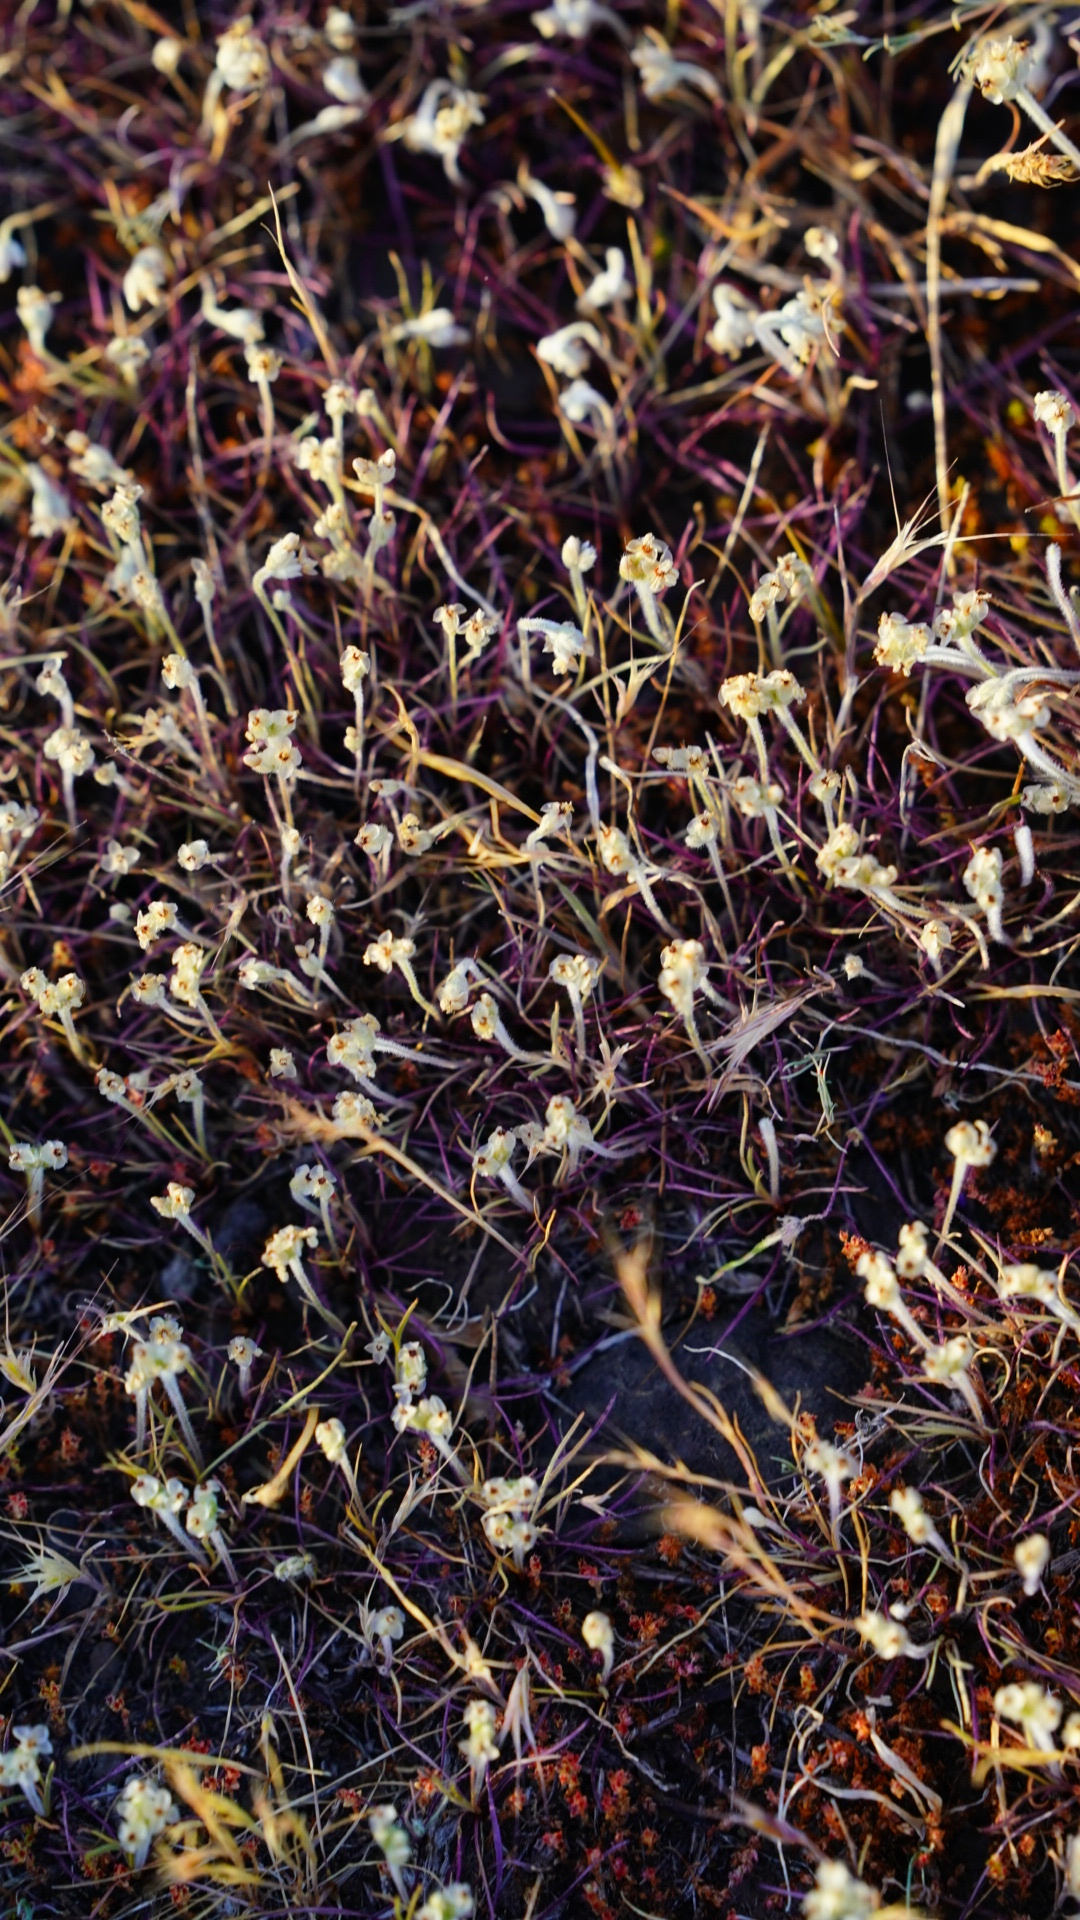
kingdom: Plantae
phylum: Tracheophyta
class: Magnoliopsida
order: Lamiales
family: Plantaginaceae
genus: Plantago
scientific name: Plantago erecta
